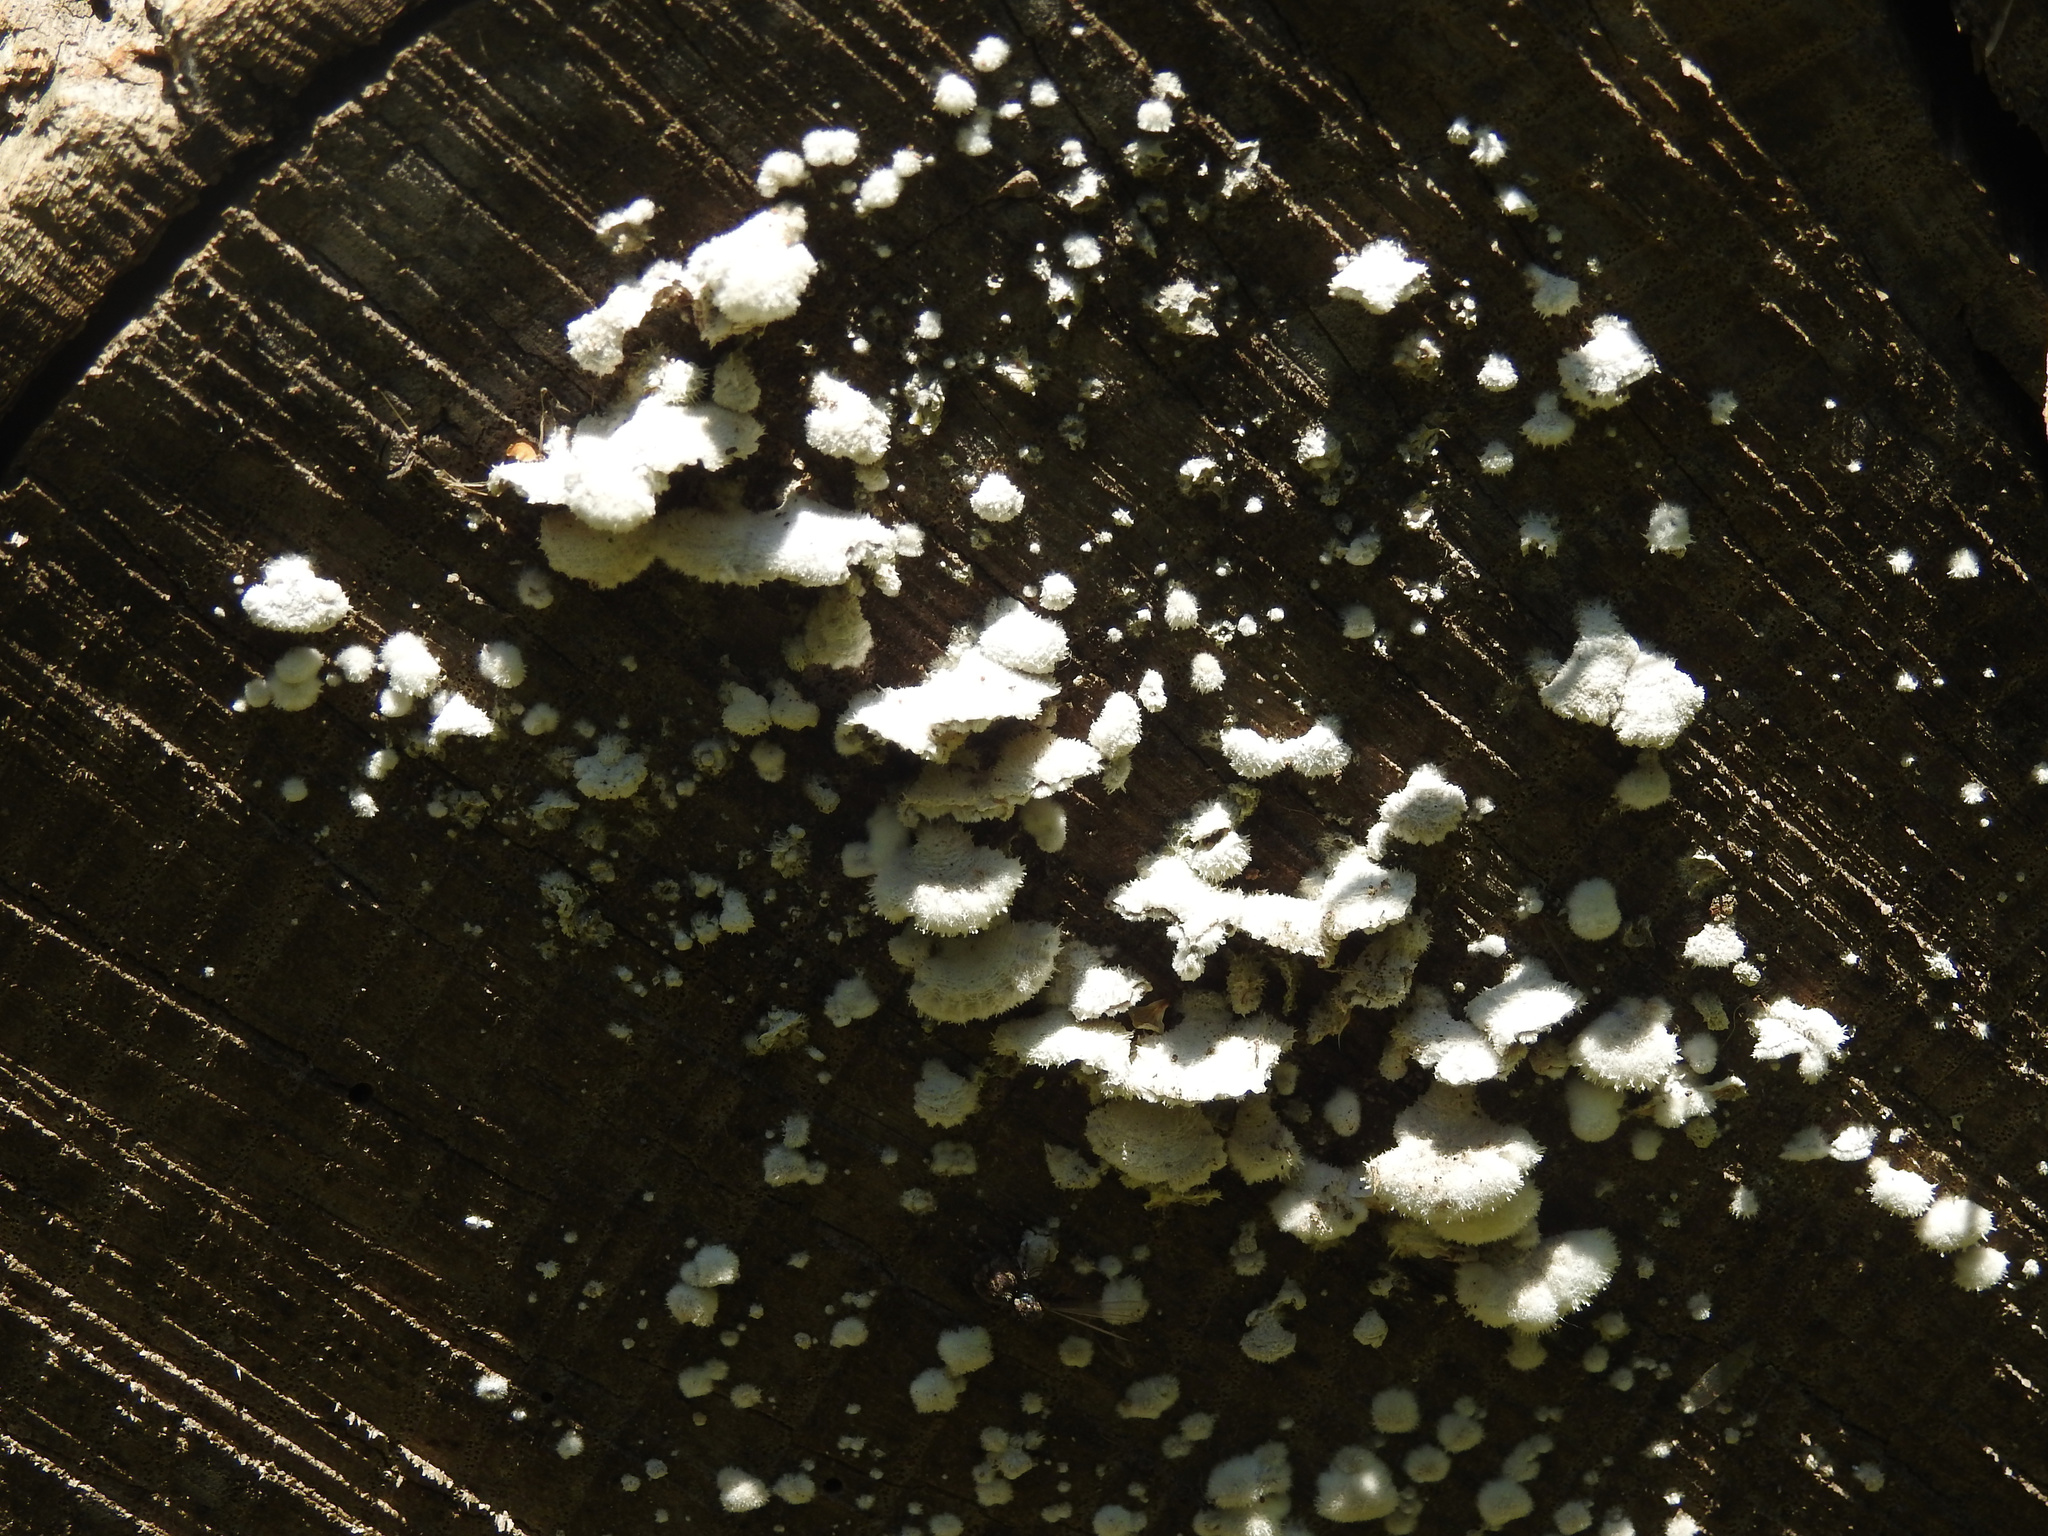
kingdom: Fungi
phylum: Basidiomycota
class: Agaricomycetes
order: Agaricales
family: Schizophyllaceae
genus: Schizophyllum
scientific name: Schizophyllum commune
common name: Common porecrust
